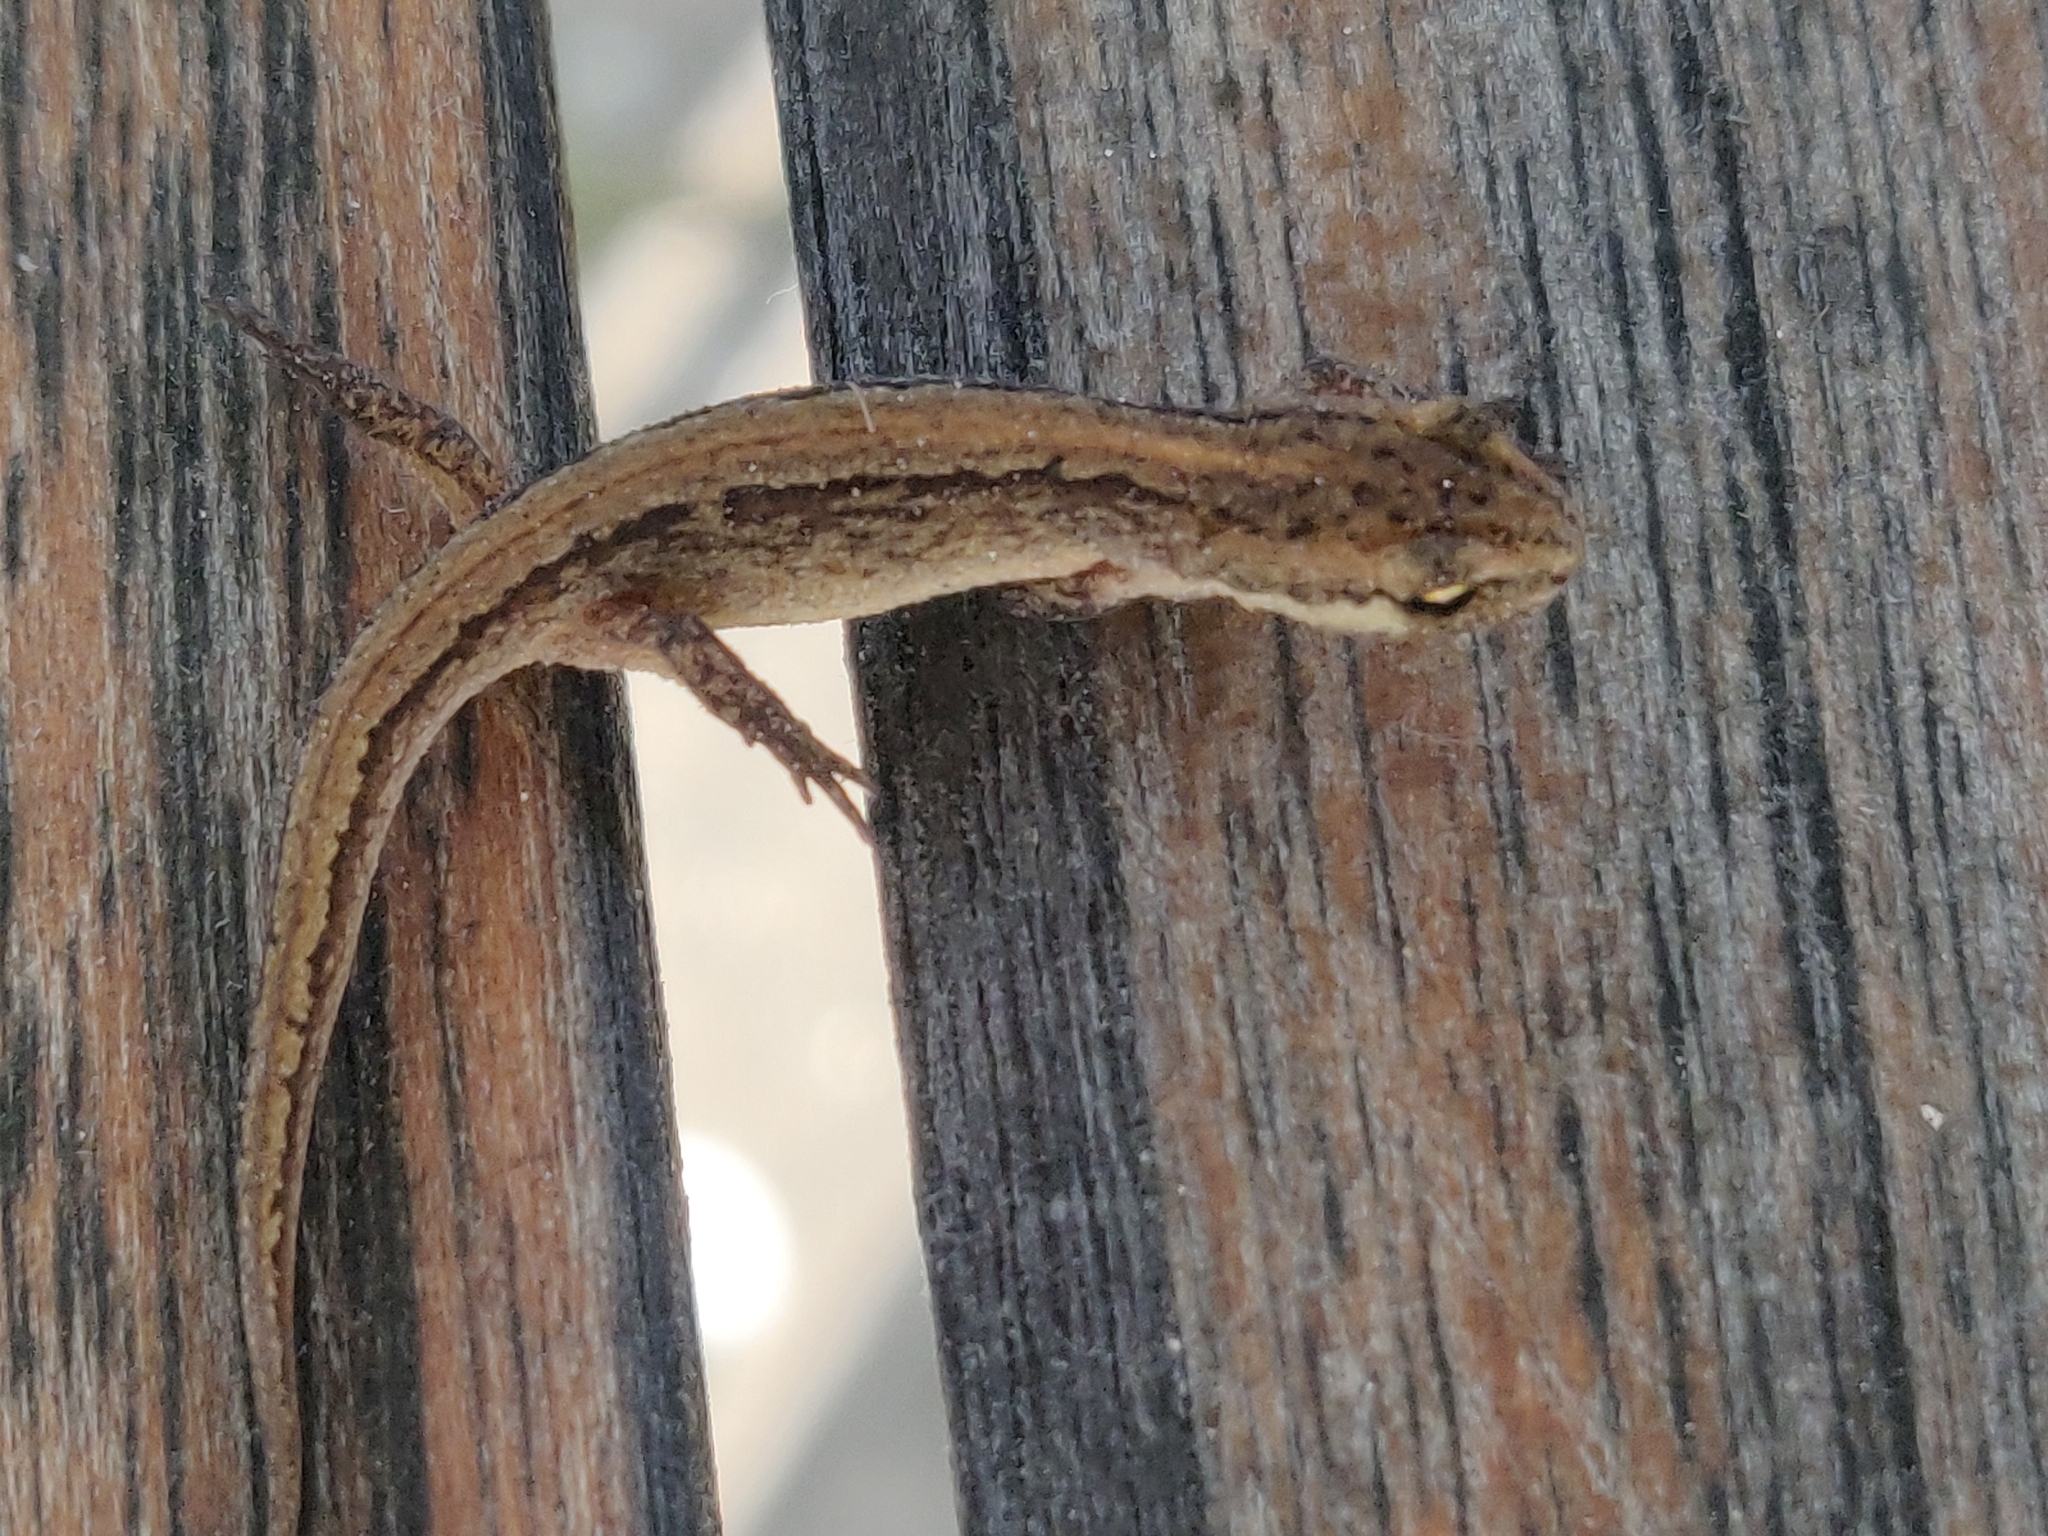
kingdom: Animalia
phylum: Chordata
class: Amphibia
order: Caudata
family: Salamandridae
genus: Lissotriton
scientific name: Lissotriton vulgaris
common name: Smooth newt
